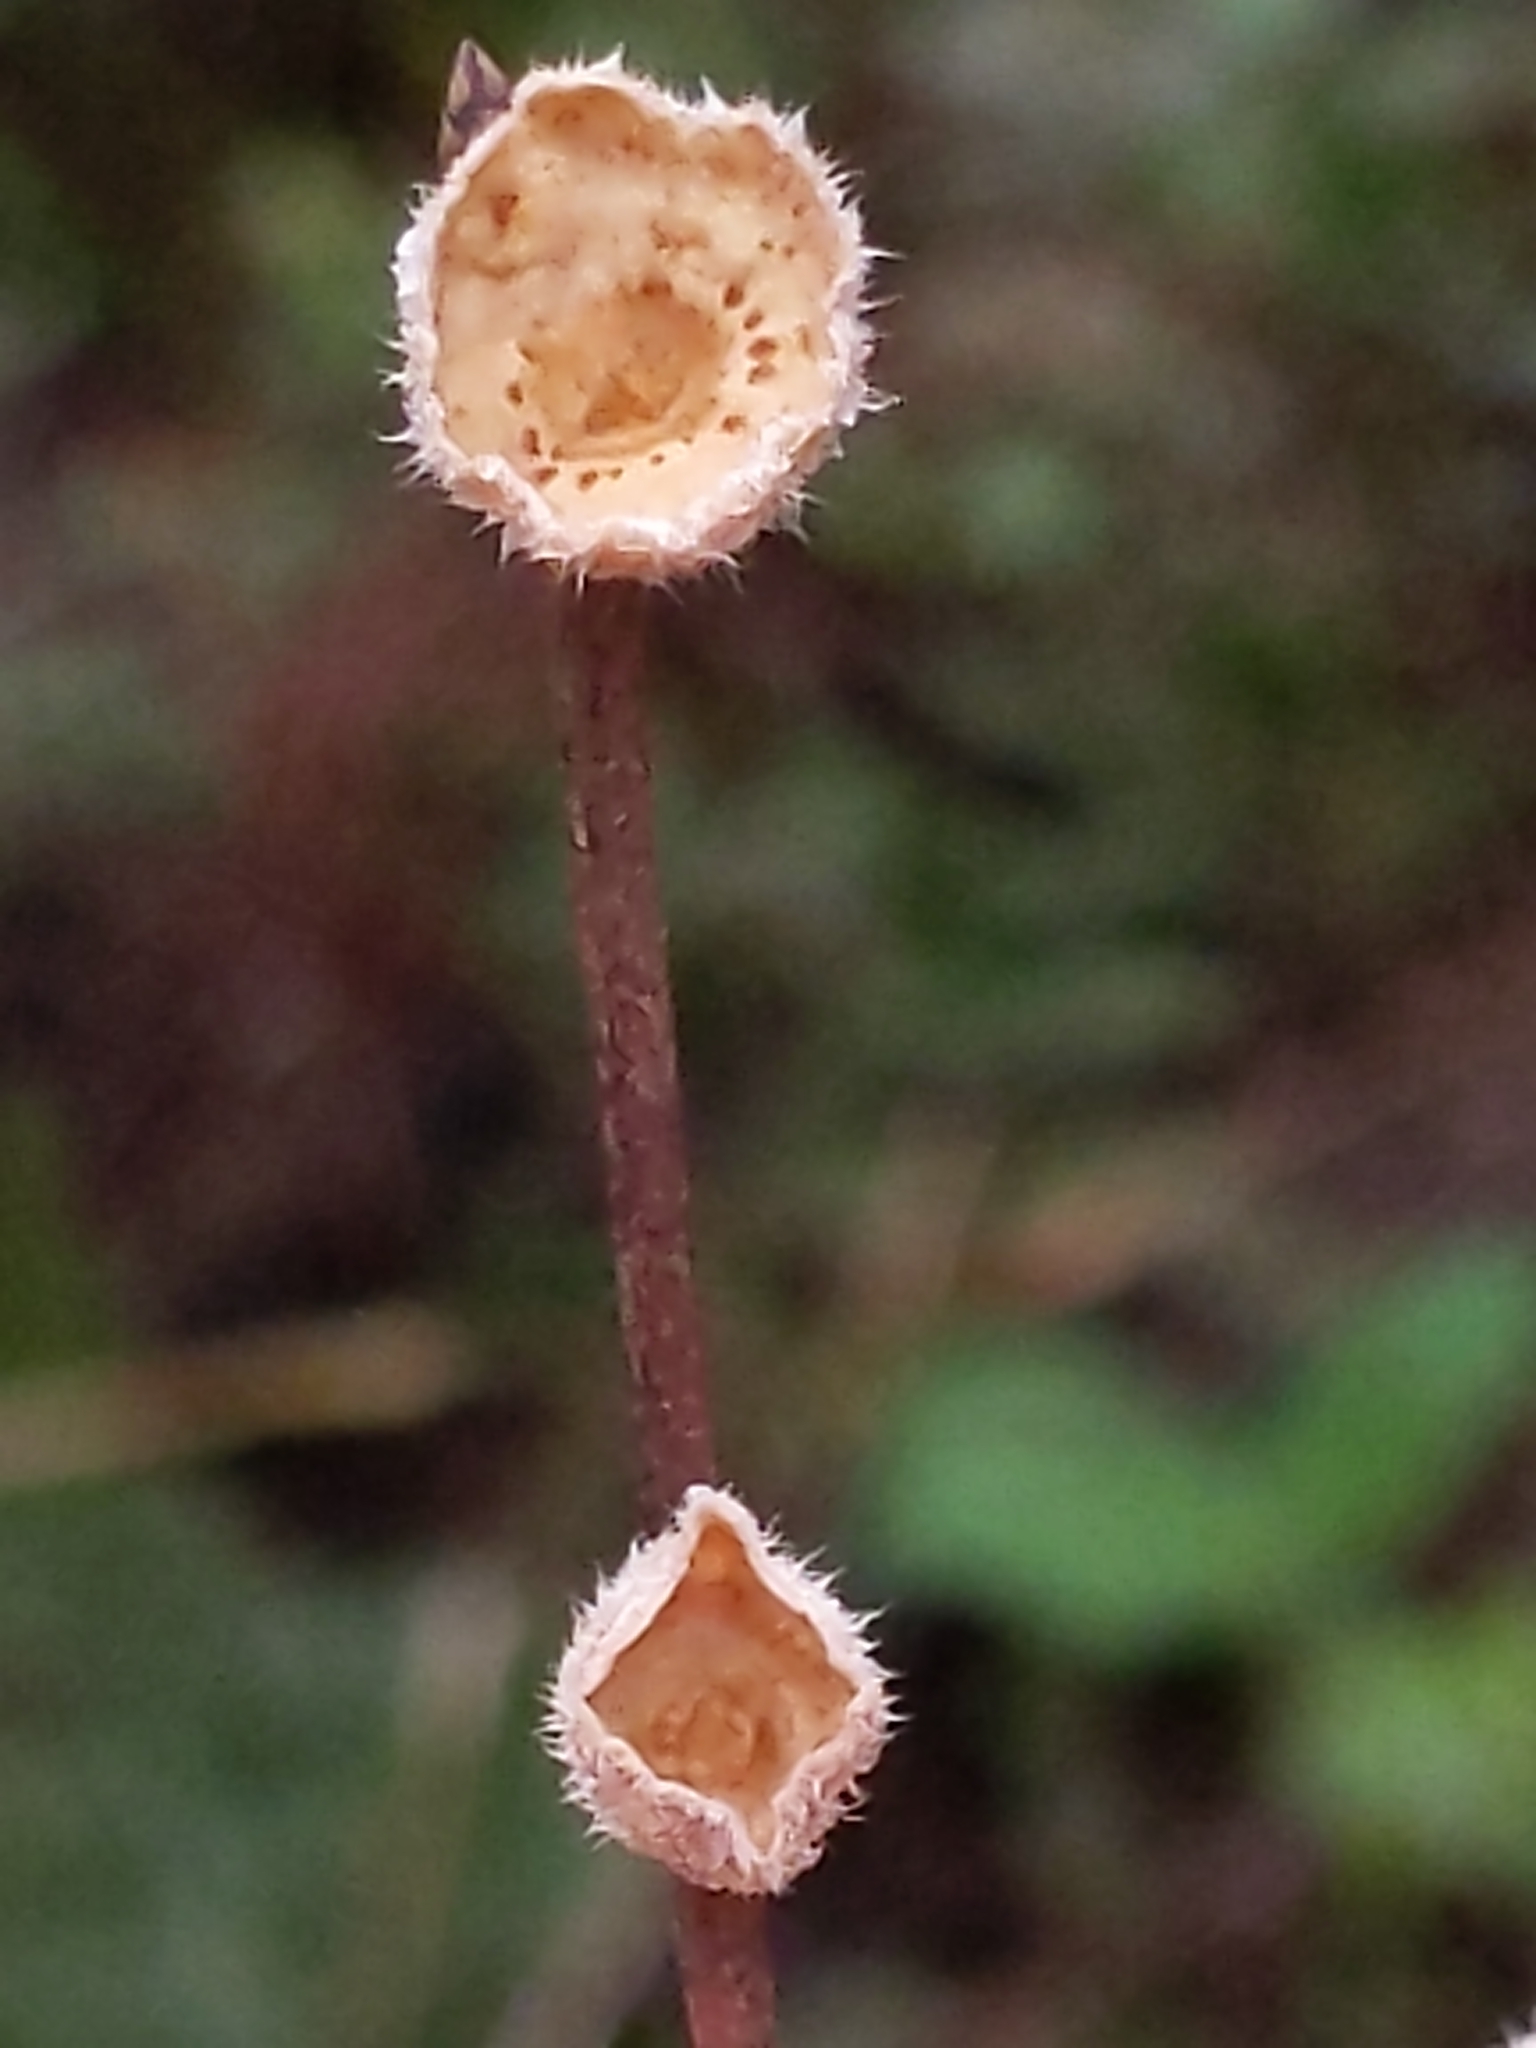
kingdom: Fungi
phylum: Basidiomycota
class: Agaricomycetes
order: Russulales
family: Stereaceae
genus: Stereum
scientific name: Stereum ochraceoflavum
